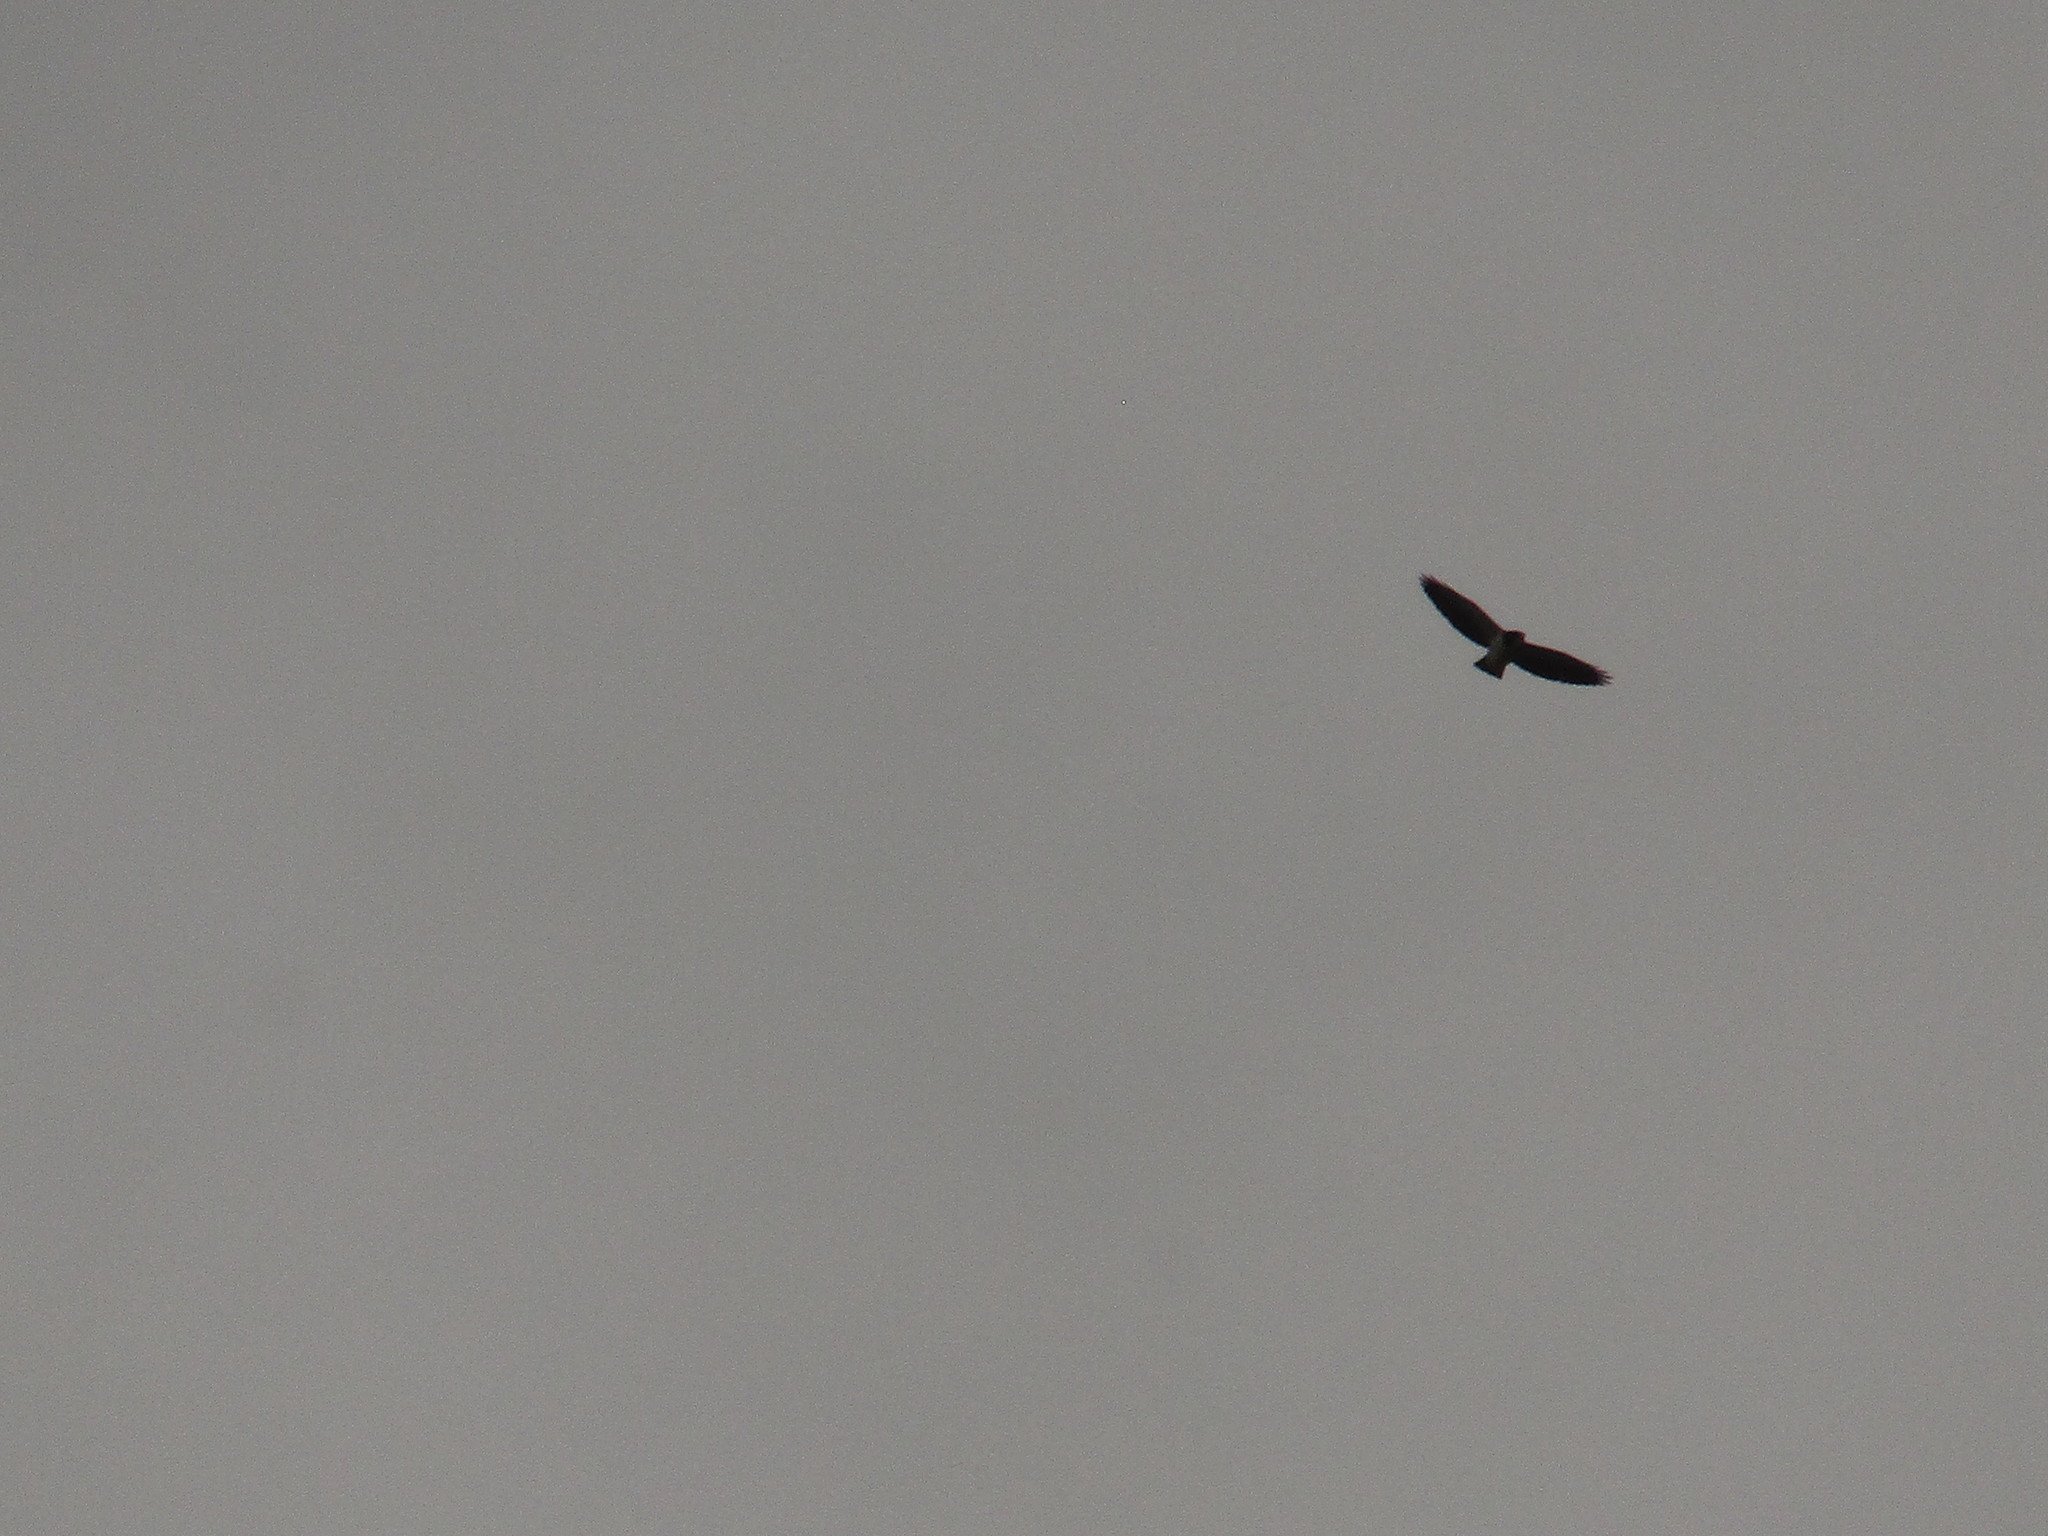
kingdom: Animalia
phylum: Chordata
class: Aves
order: Accipitriformes
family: Accipitridae
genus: Buteo
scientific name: Buteo brachyurus
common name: Short-tailed hawk
